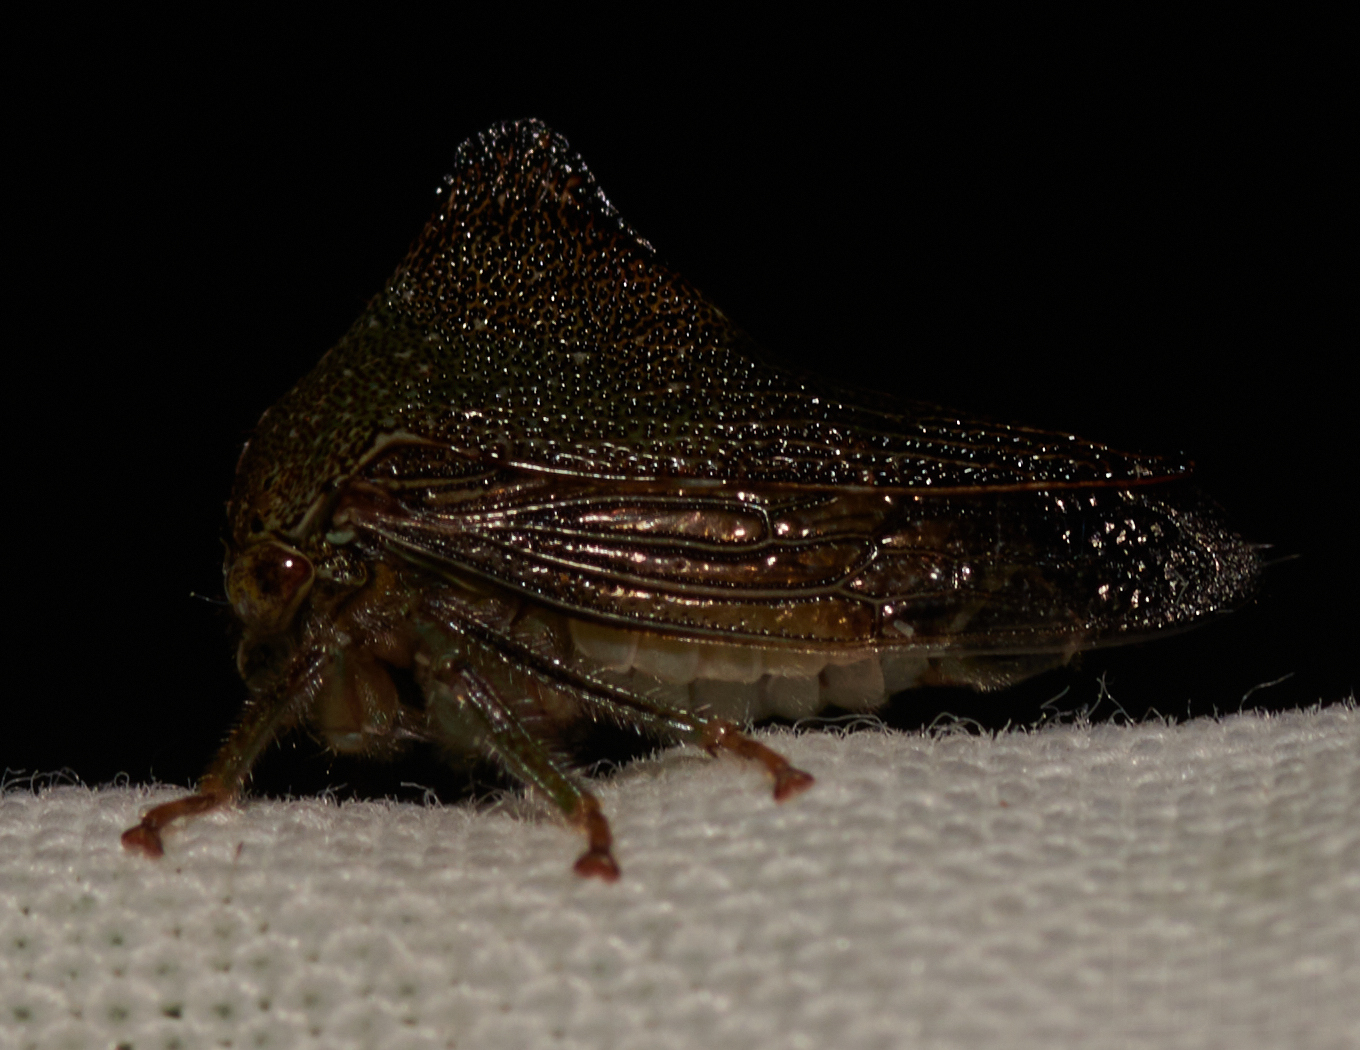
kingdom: Animalia
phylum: Arthropoda
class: Insecta
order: Hemiptera
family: Membracidae
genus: Telamona
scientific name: Telamona tarda
